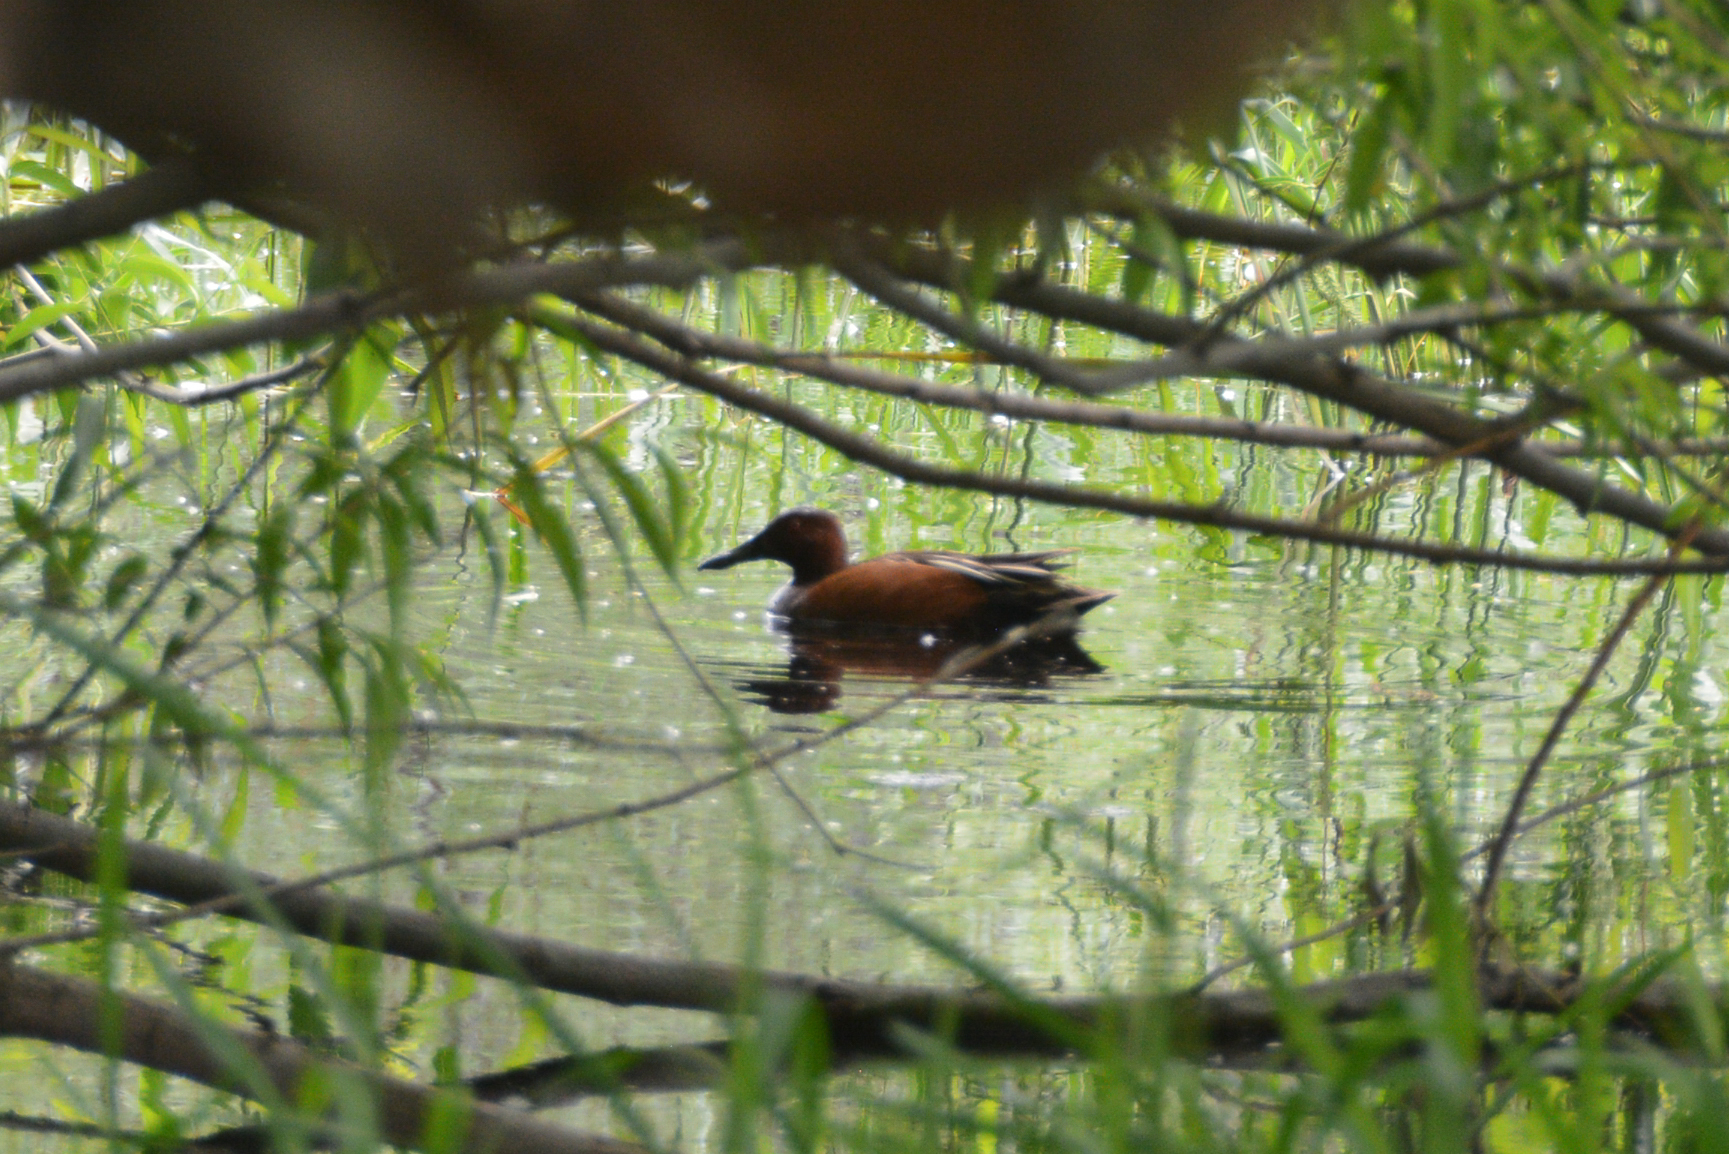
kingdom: Animalia
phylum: Chordata
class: Aves
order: Anseriformes
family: Anatidae
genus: Spatula
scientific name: Spatula cyanoptera
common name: Cinnamon teal
